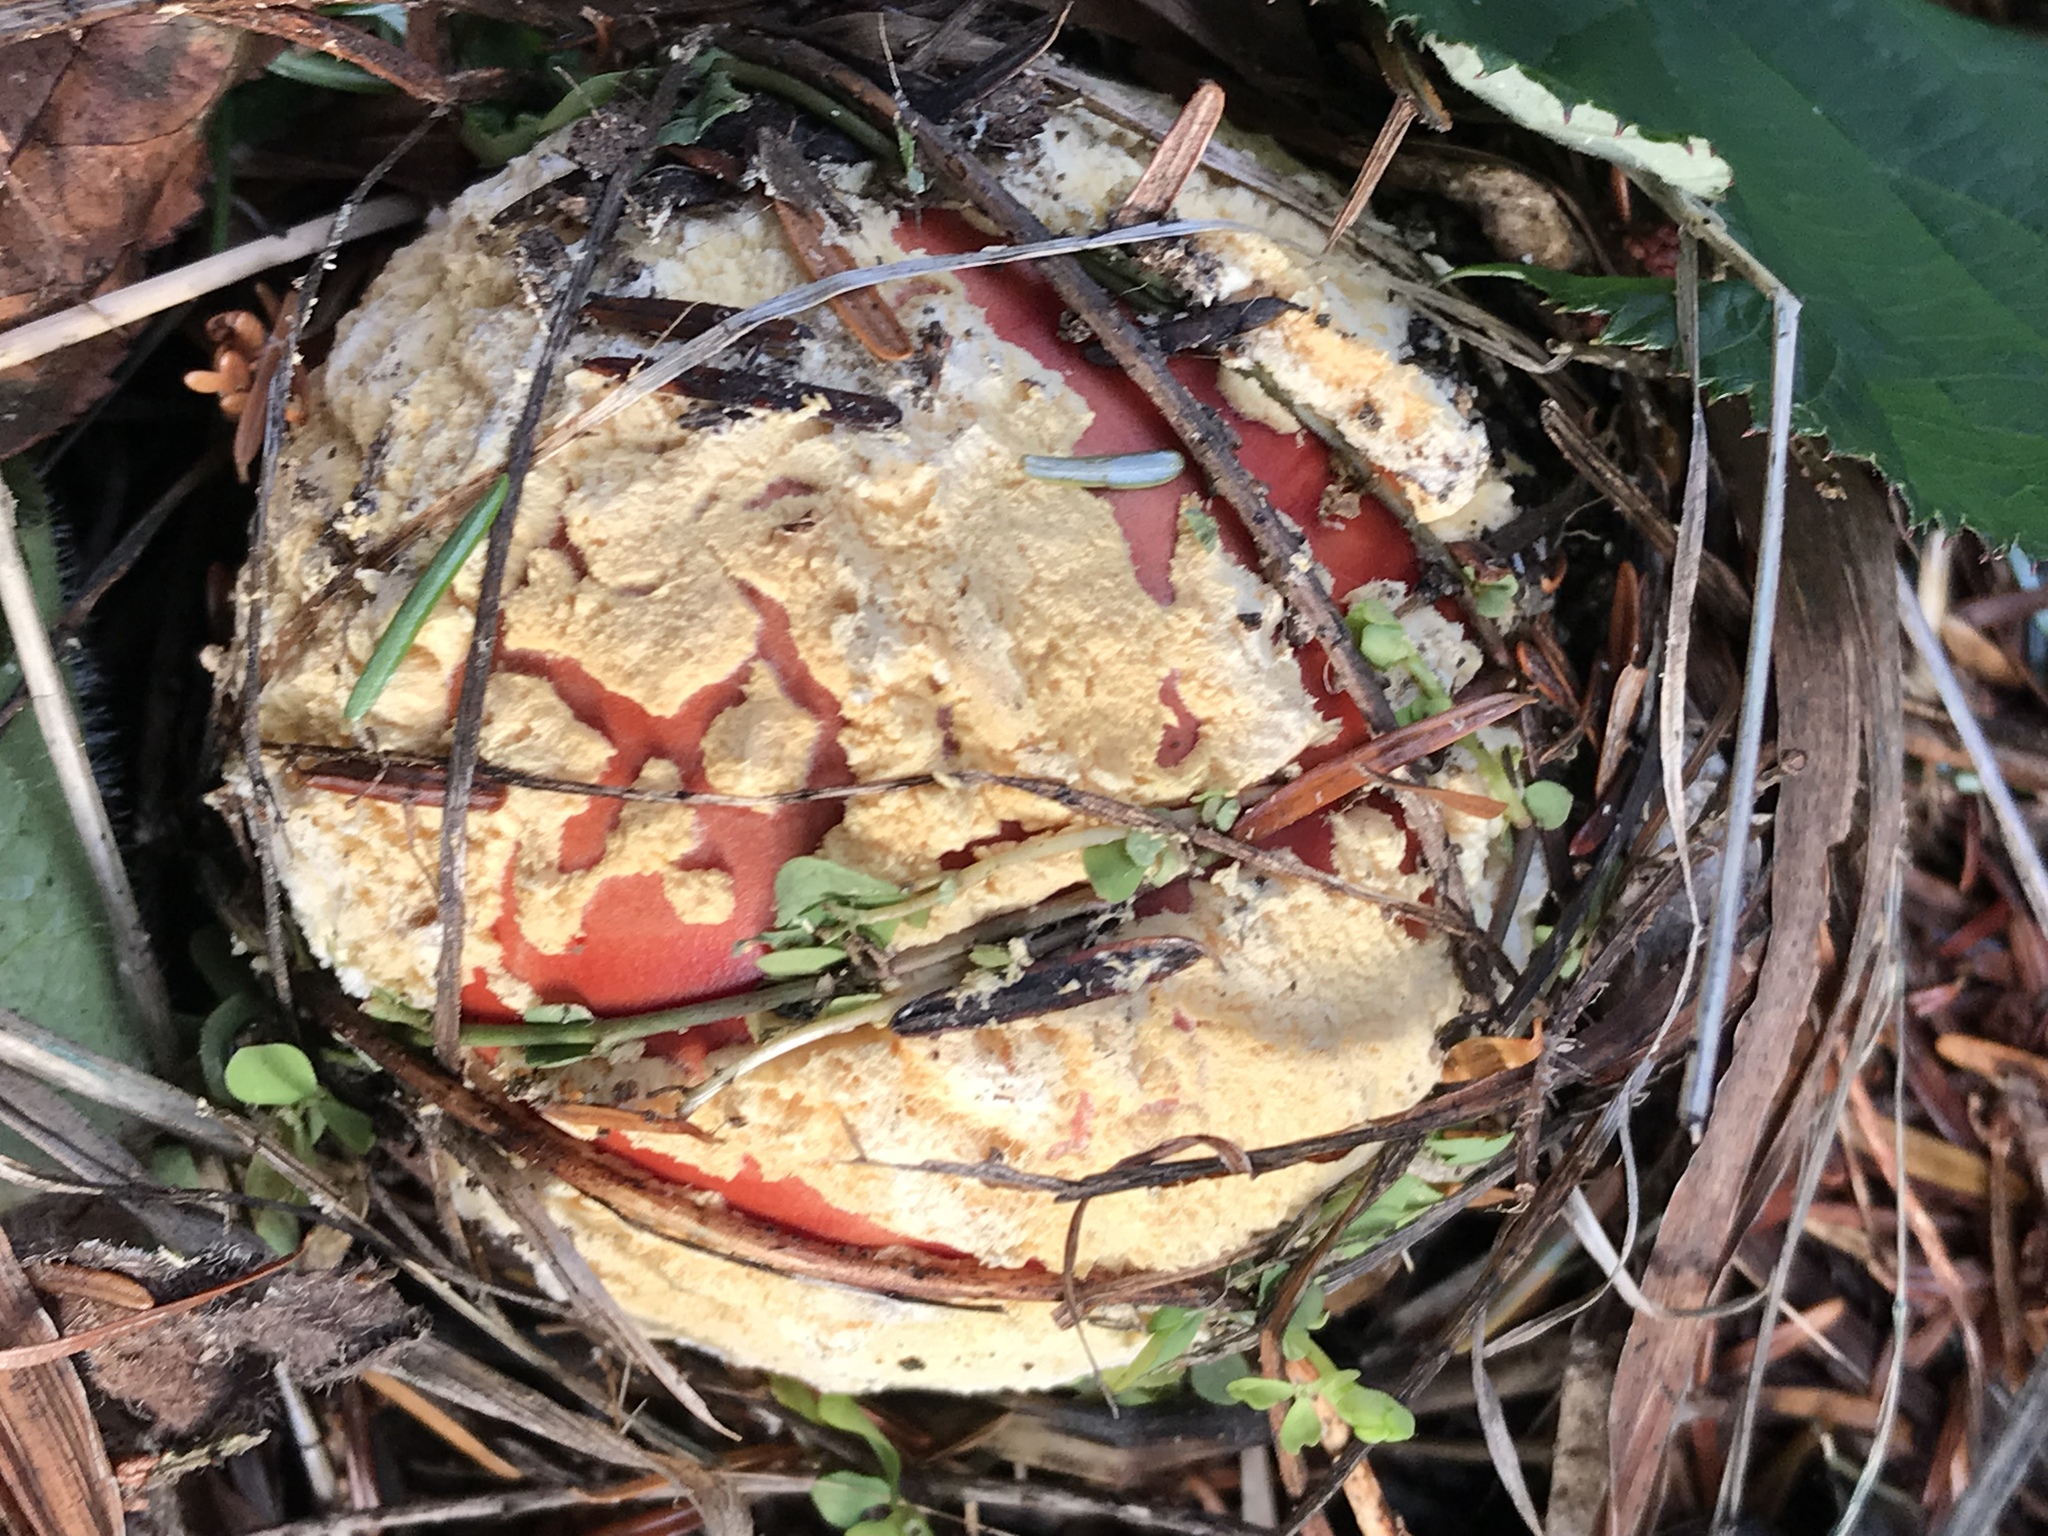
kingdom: Fungi
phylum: Basidiomycota
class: Agaricomycetes
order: Agaricales
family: Amanitaceae
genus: Amanita
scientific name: Amanita muscaria
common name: Fly agaric
